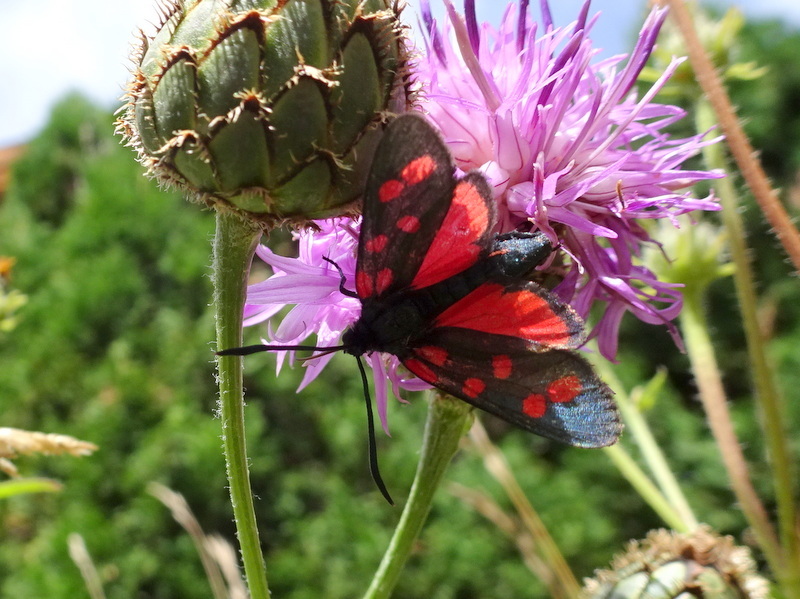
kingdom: Animalia
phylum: Arthropoda
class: Insecta
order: Lepidoptera
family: Zygaenidae
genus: Zygaena
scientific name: Zygaena transalpina
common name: Southern six spot burnet
